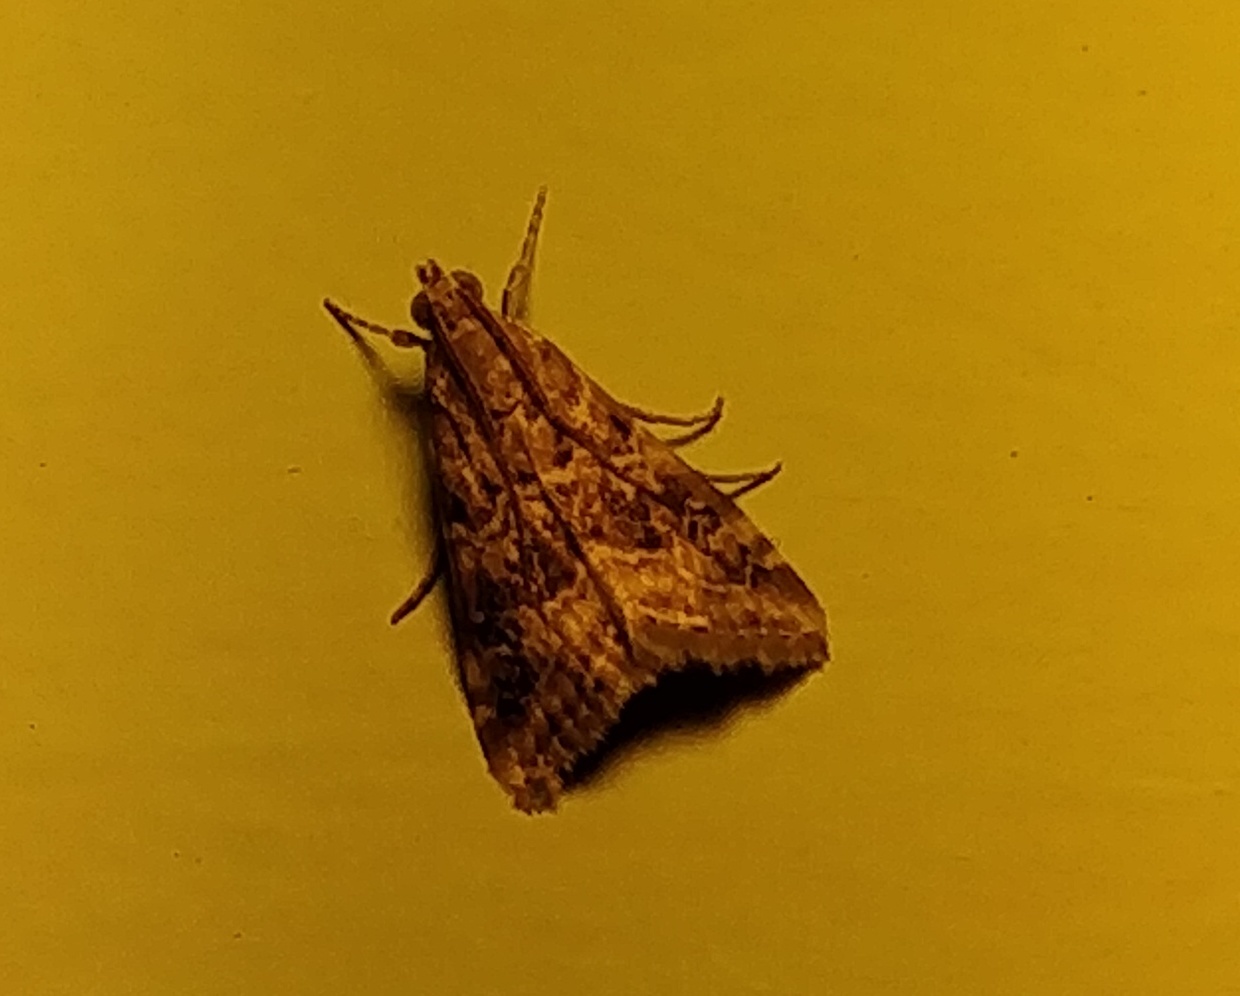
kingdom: Animalia
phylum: Arthropoda
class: Insecta
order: Lepidoptera
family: Crambidae
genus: Hellula
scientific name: Hellula undalis
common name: Cabbage webworm
